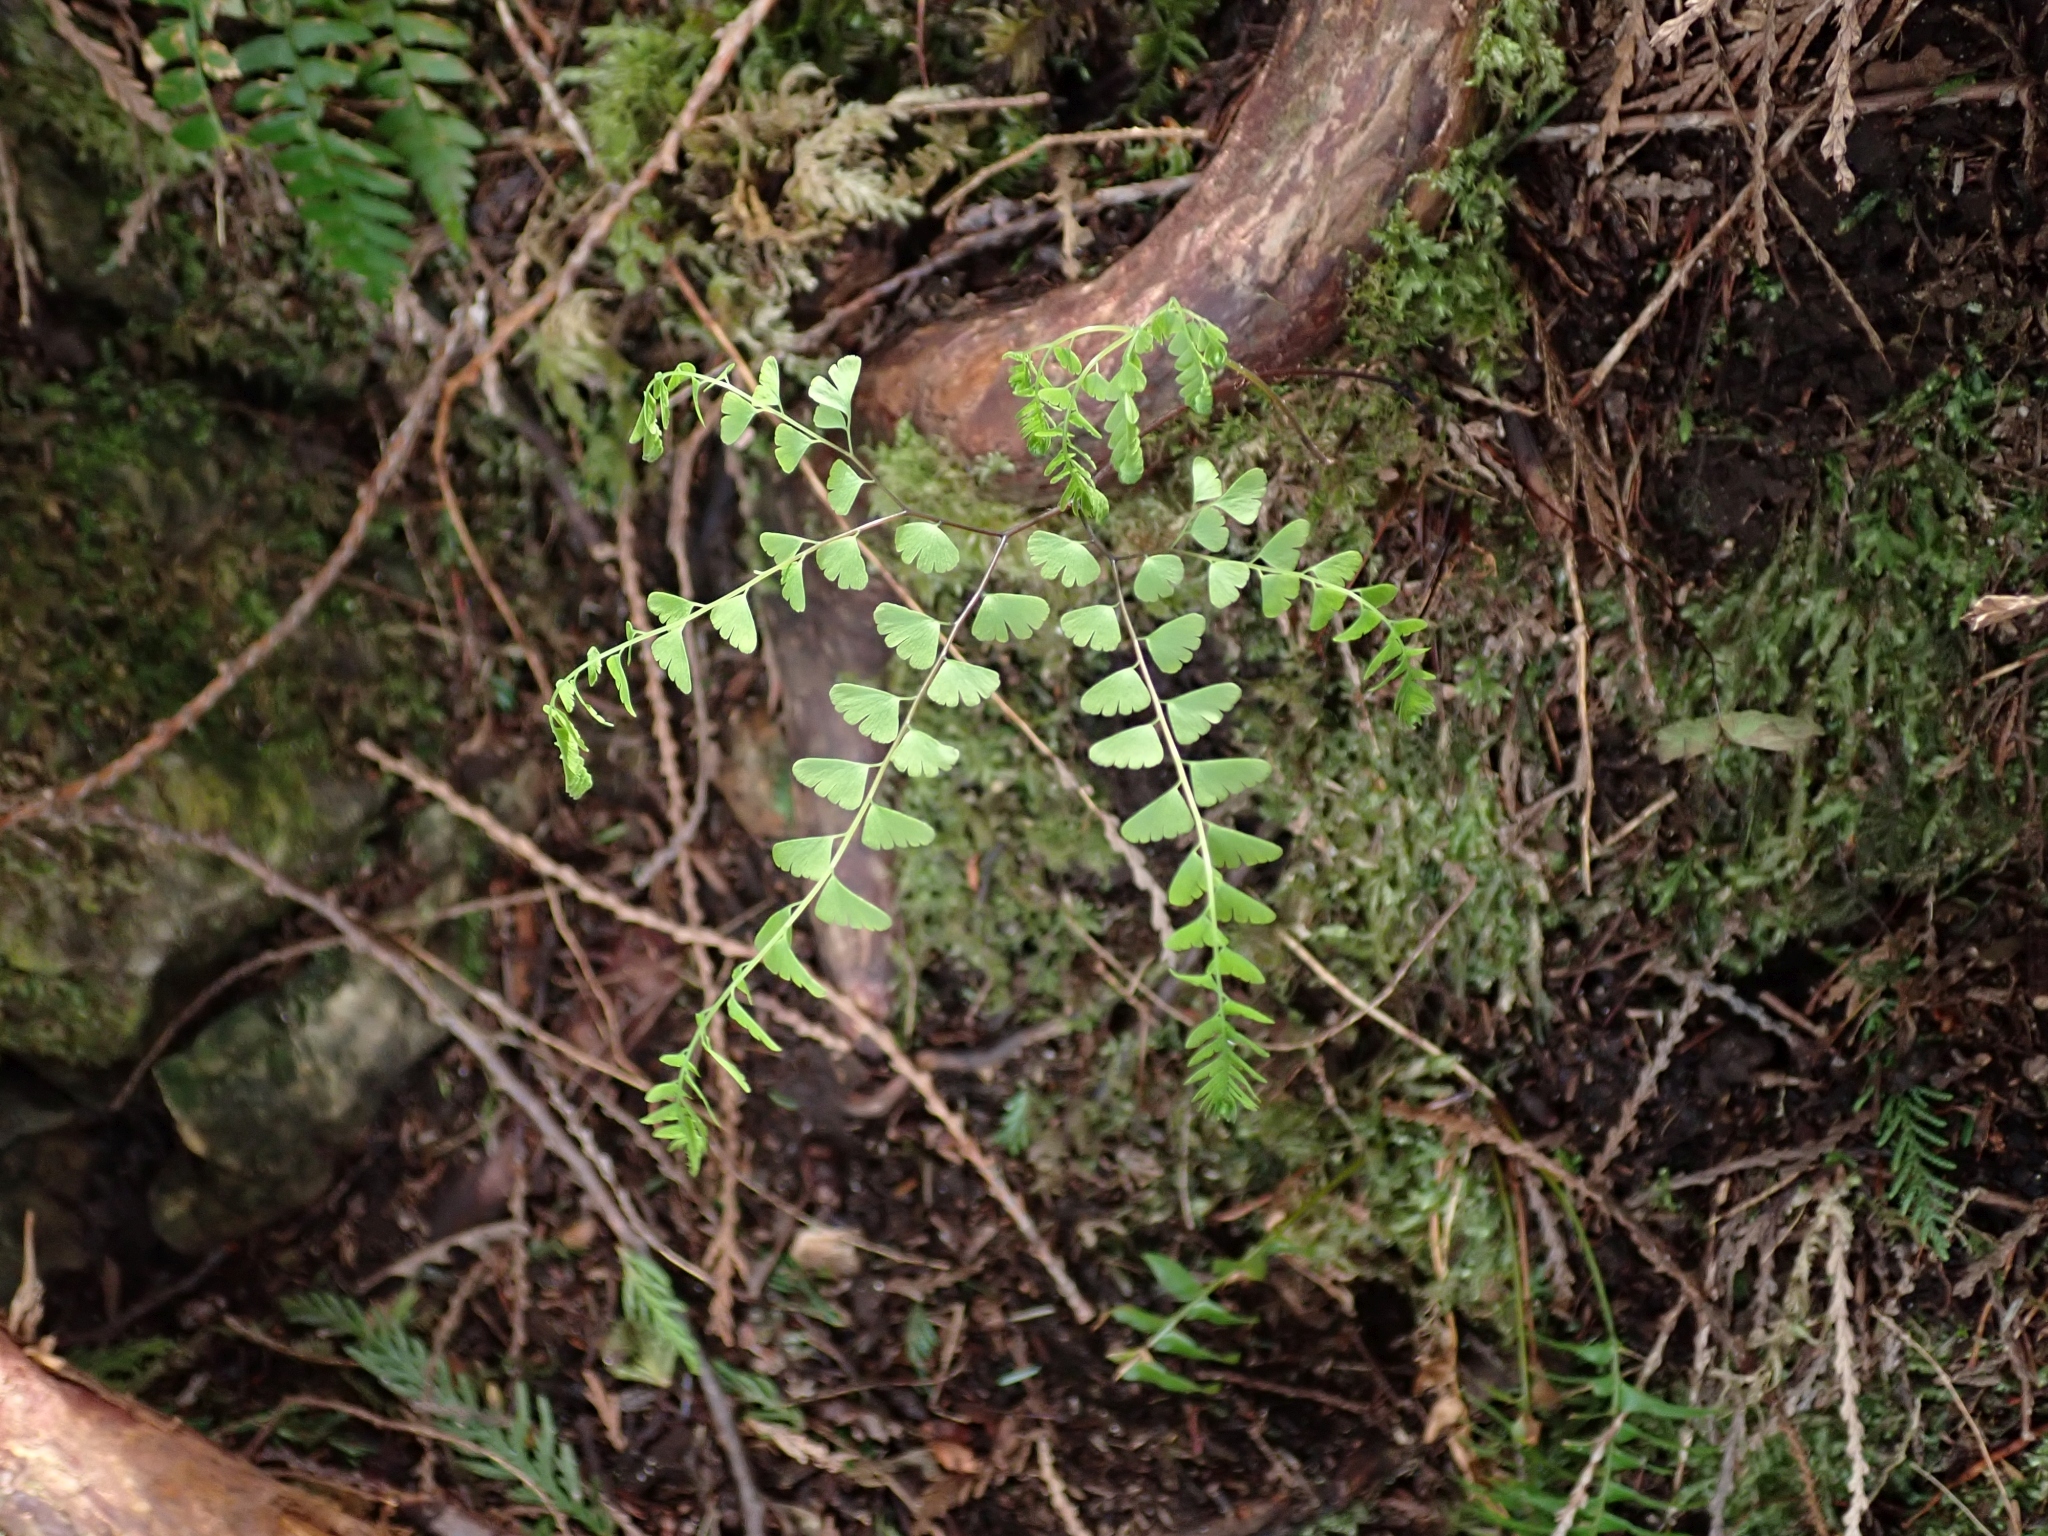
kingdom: Plantae
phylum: Tracheophyta
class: Polypodiopsida
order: Polypodiales
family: Pteridaceae
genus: Adiantum
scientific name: Adiantum aleuticum
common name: Aleutian maidenhair fern
